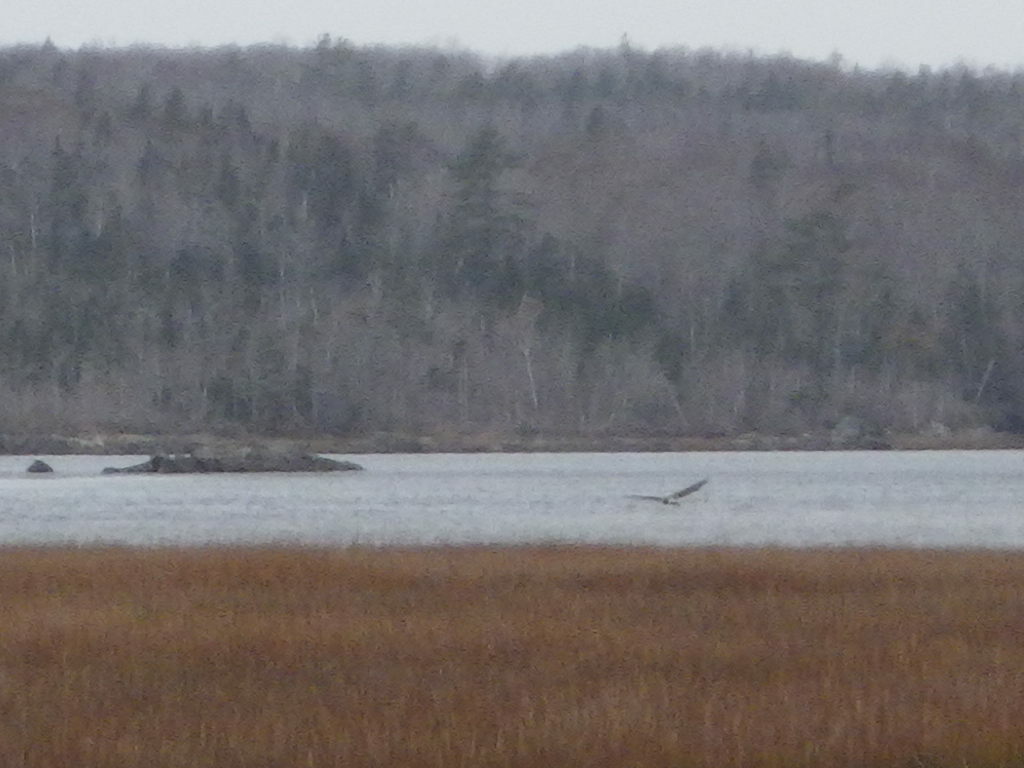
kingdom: Animalia
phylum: Chordata
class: Aves
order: Accipitriformes
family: Accipitridae
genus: Circus
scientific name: Circus cyaneus
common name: Hen harrier
